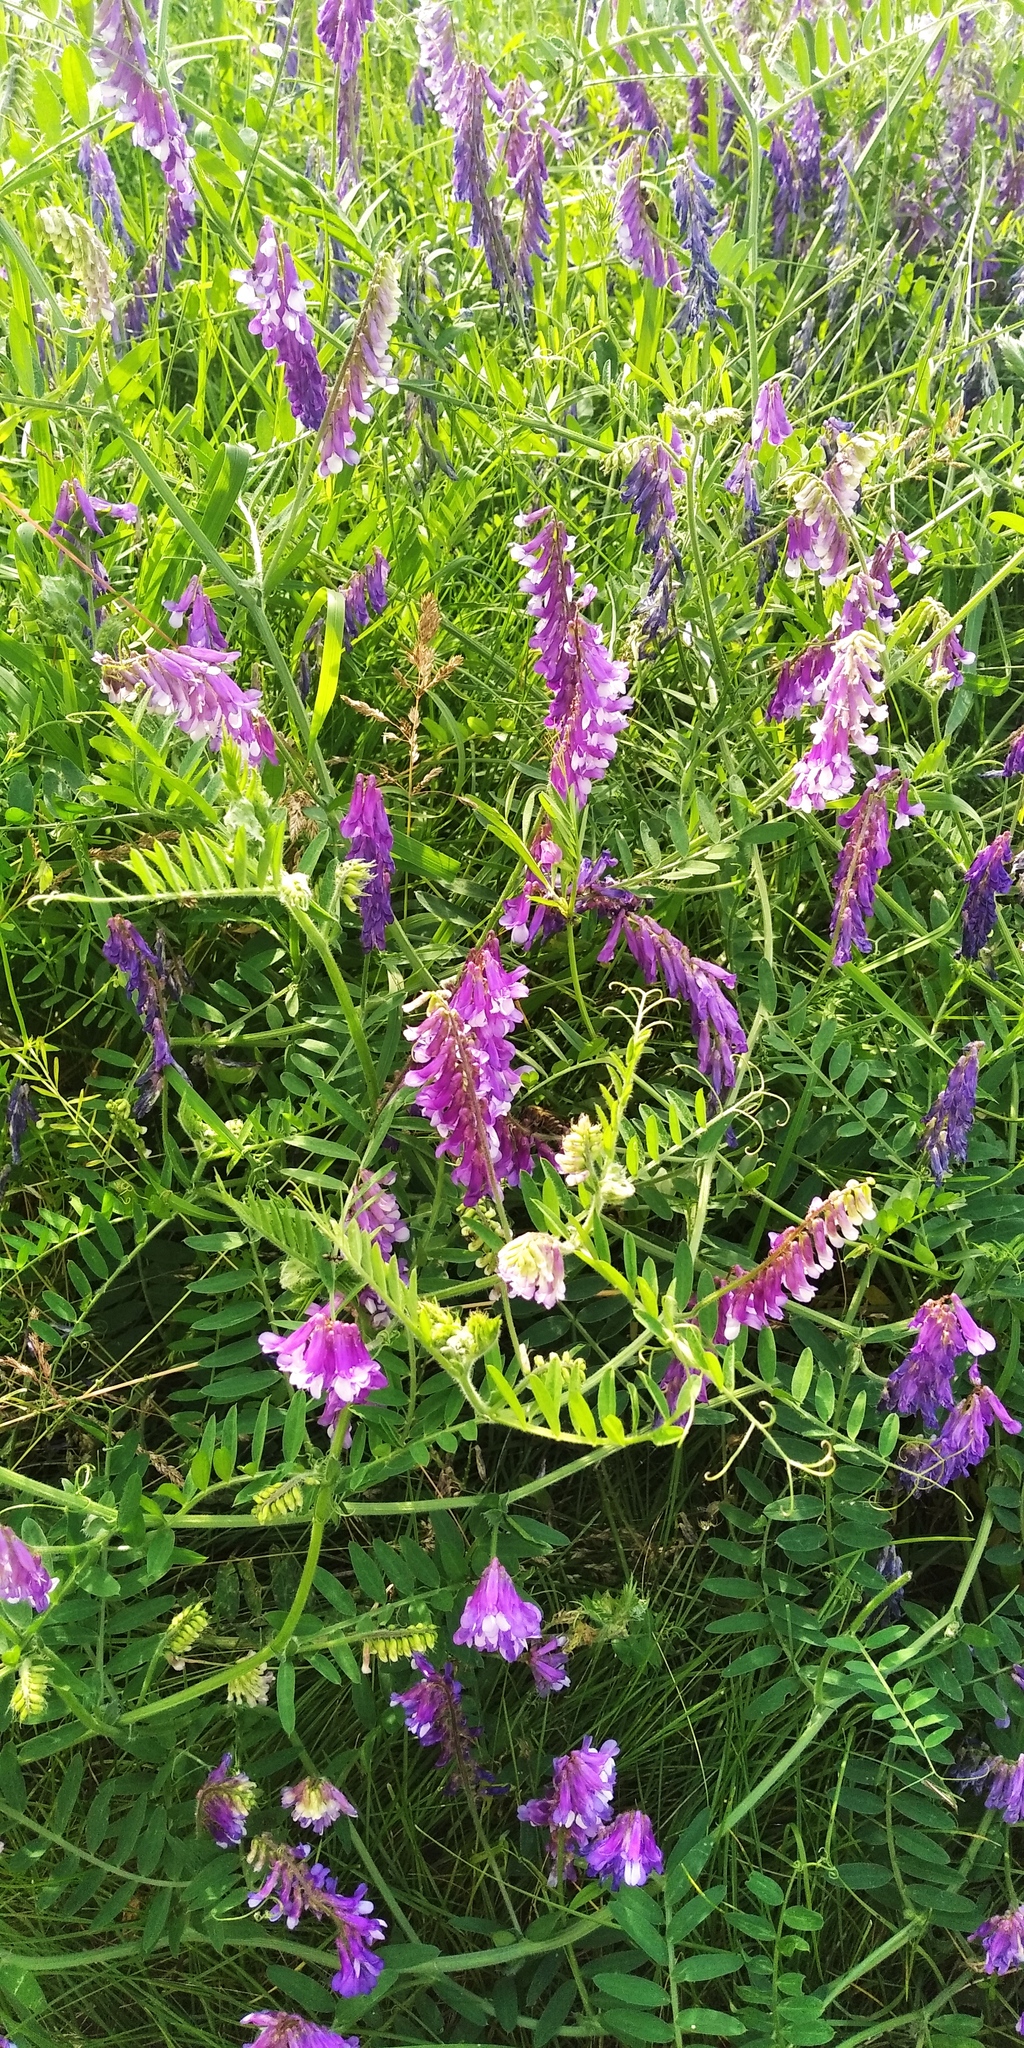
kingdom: Plantae
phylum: Tracheophyta
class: Magnoliopsida
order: Fabales
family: Fabaceae
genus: Vicia
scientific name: Vicia villosa
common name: Fodder vetch
